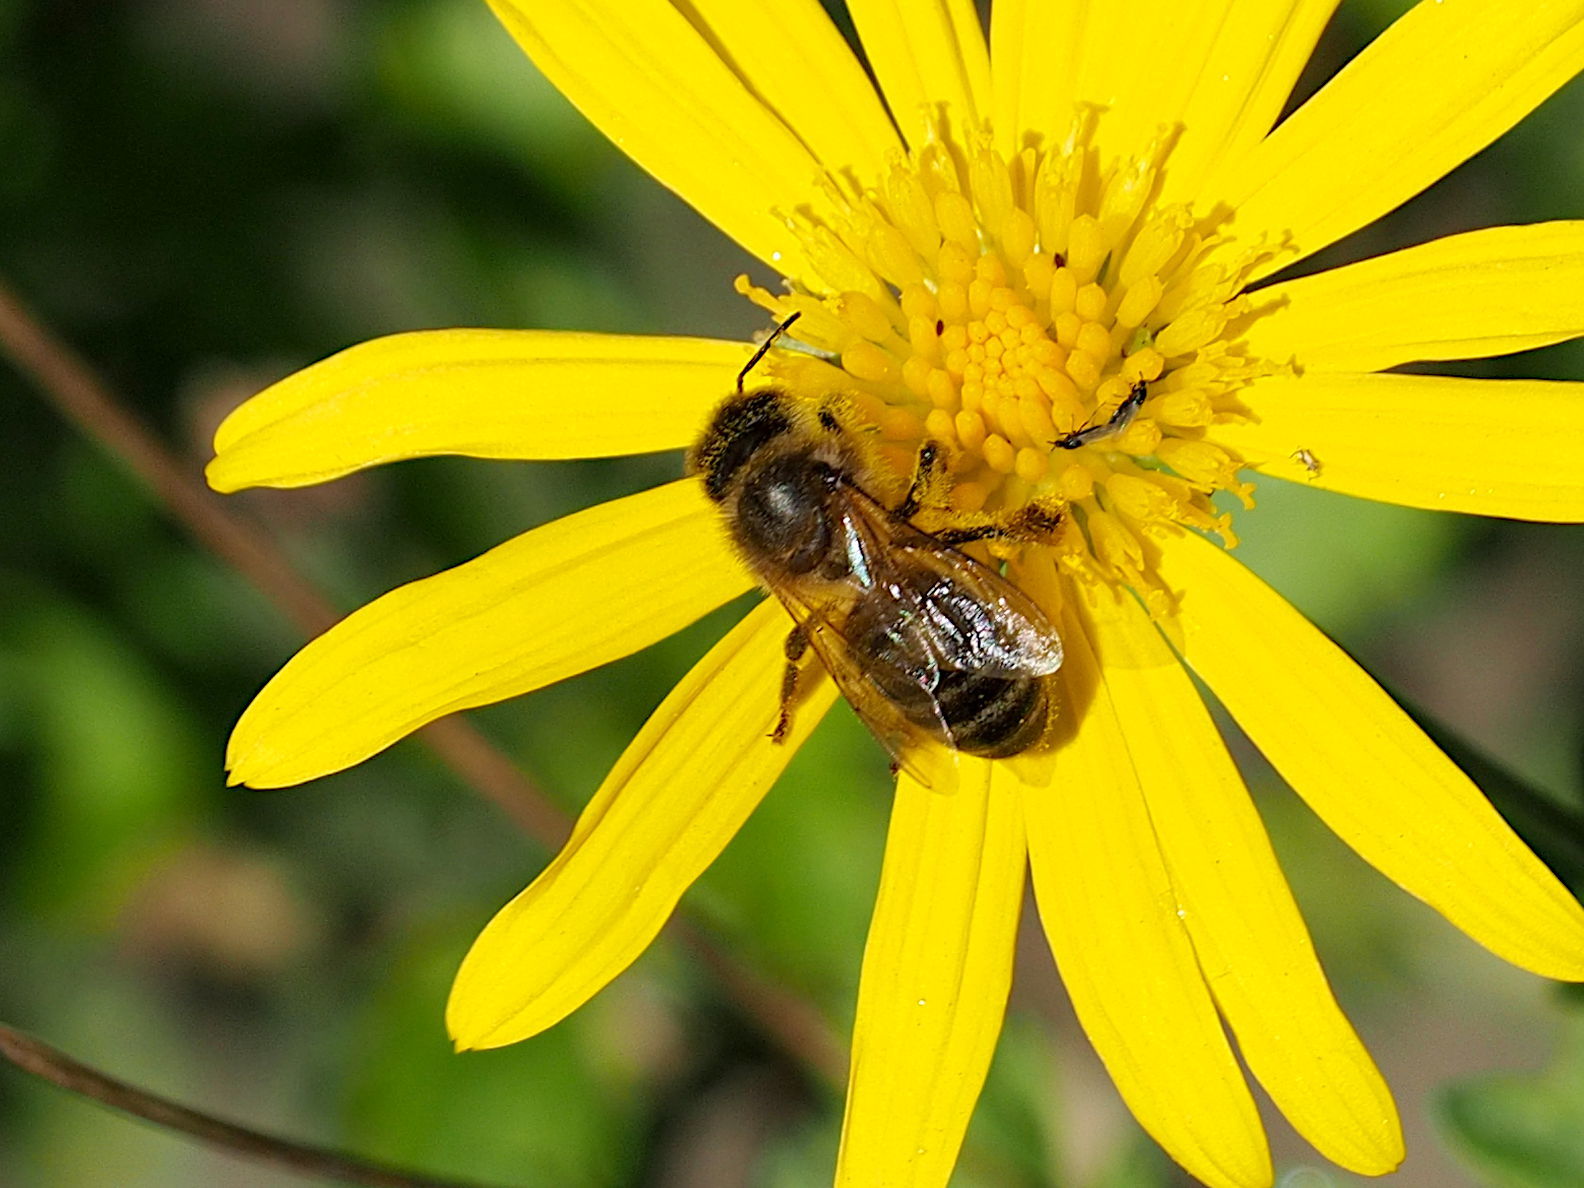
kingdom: Animalia
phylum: Arthropoda
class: Insecta
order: Hymenoptera
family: Apidae
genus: Apis
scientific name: Apis mellifera
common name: Honey bee
